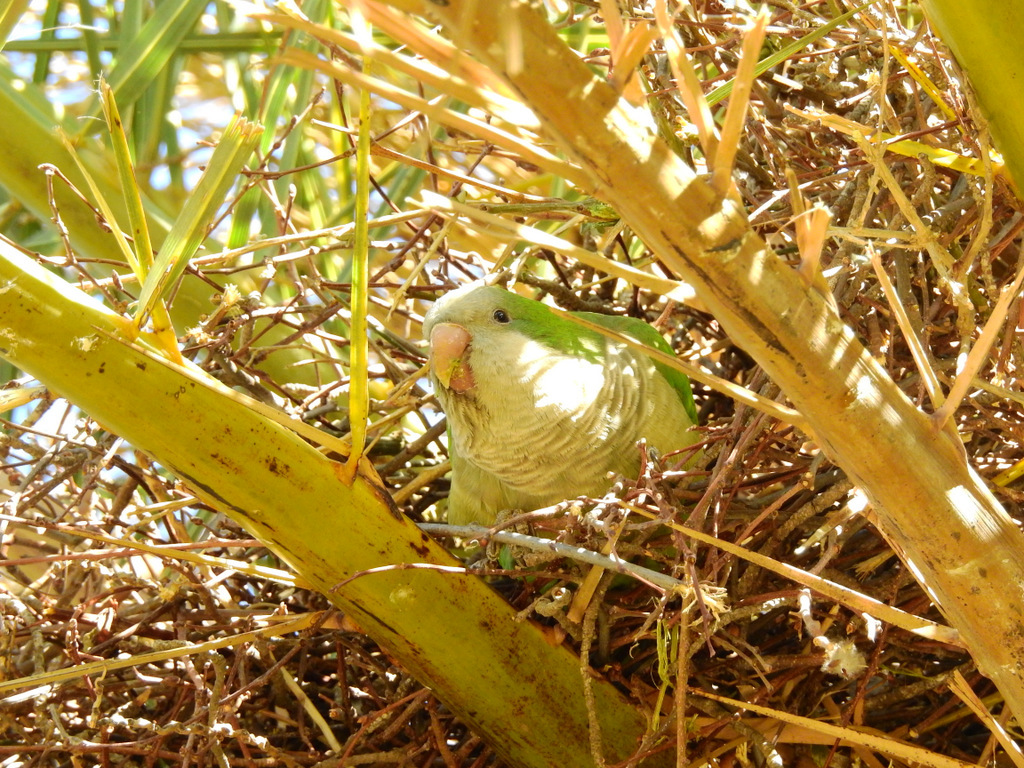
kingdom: Animalia
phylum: Chordata
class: Aves
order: Psittaciformes
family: Psittacidae
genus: Myiopsitta
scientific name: Myiopsitta monachus
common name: Monk parakeet
